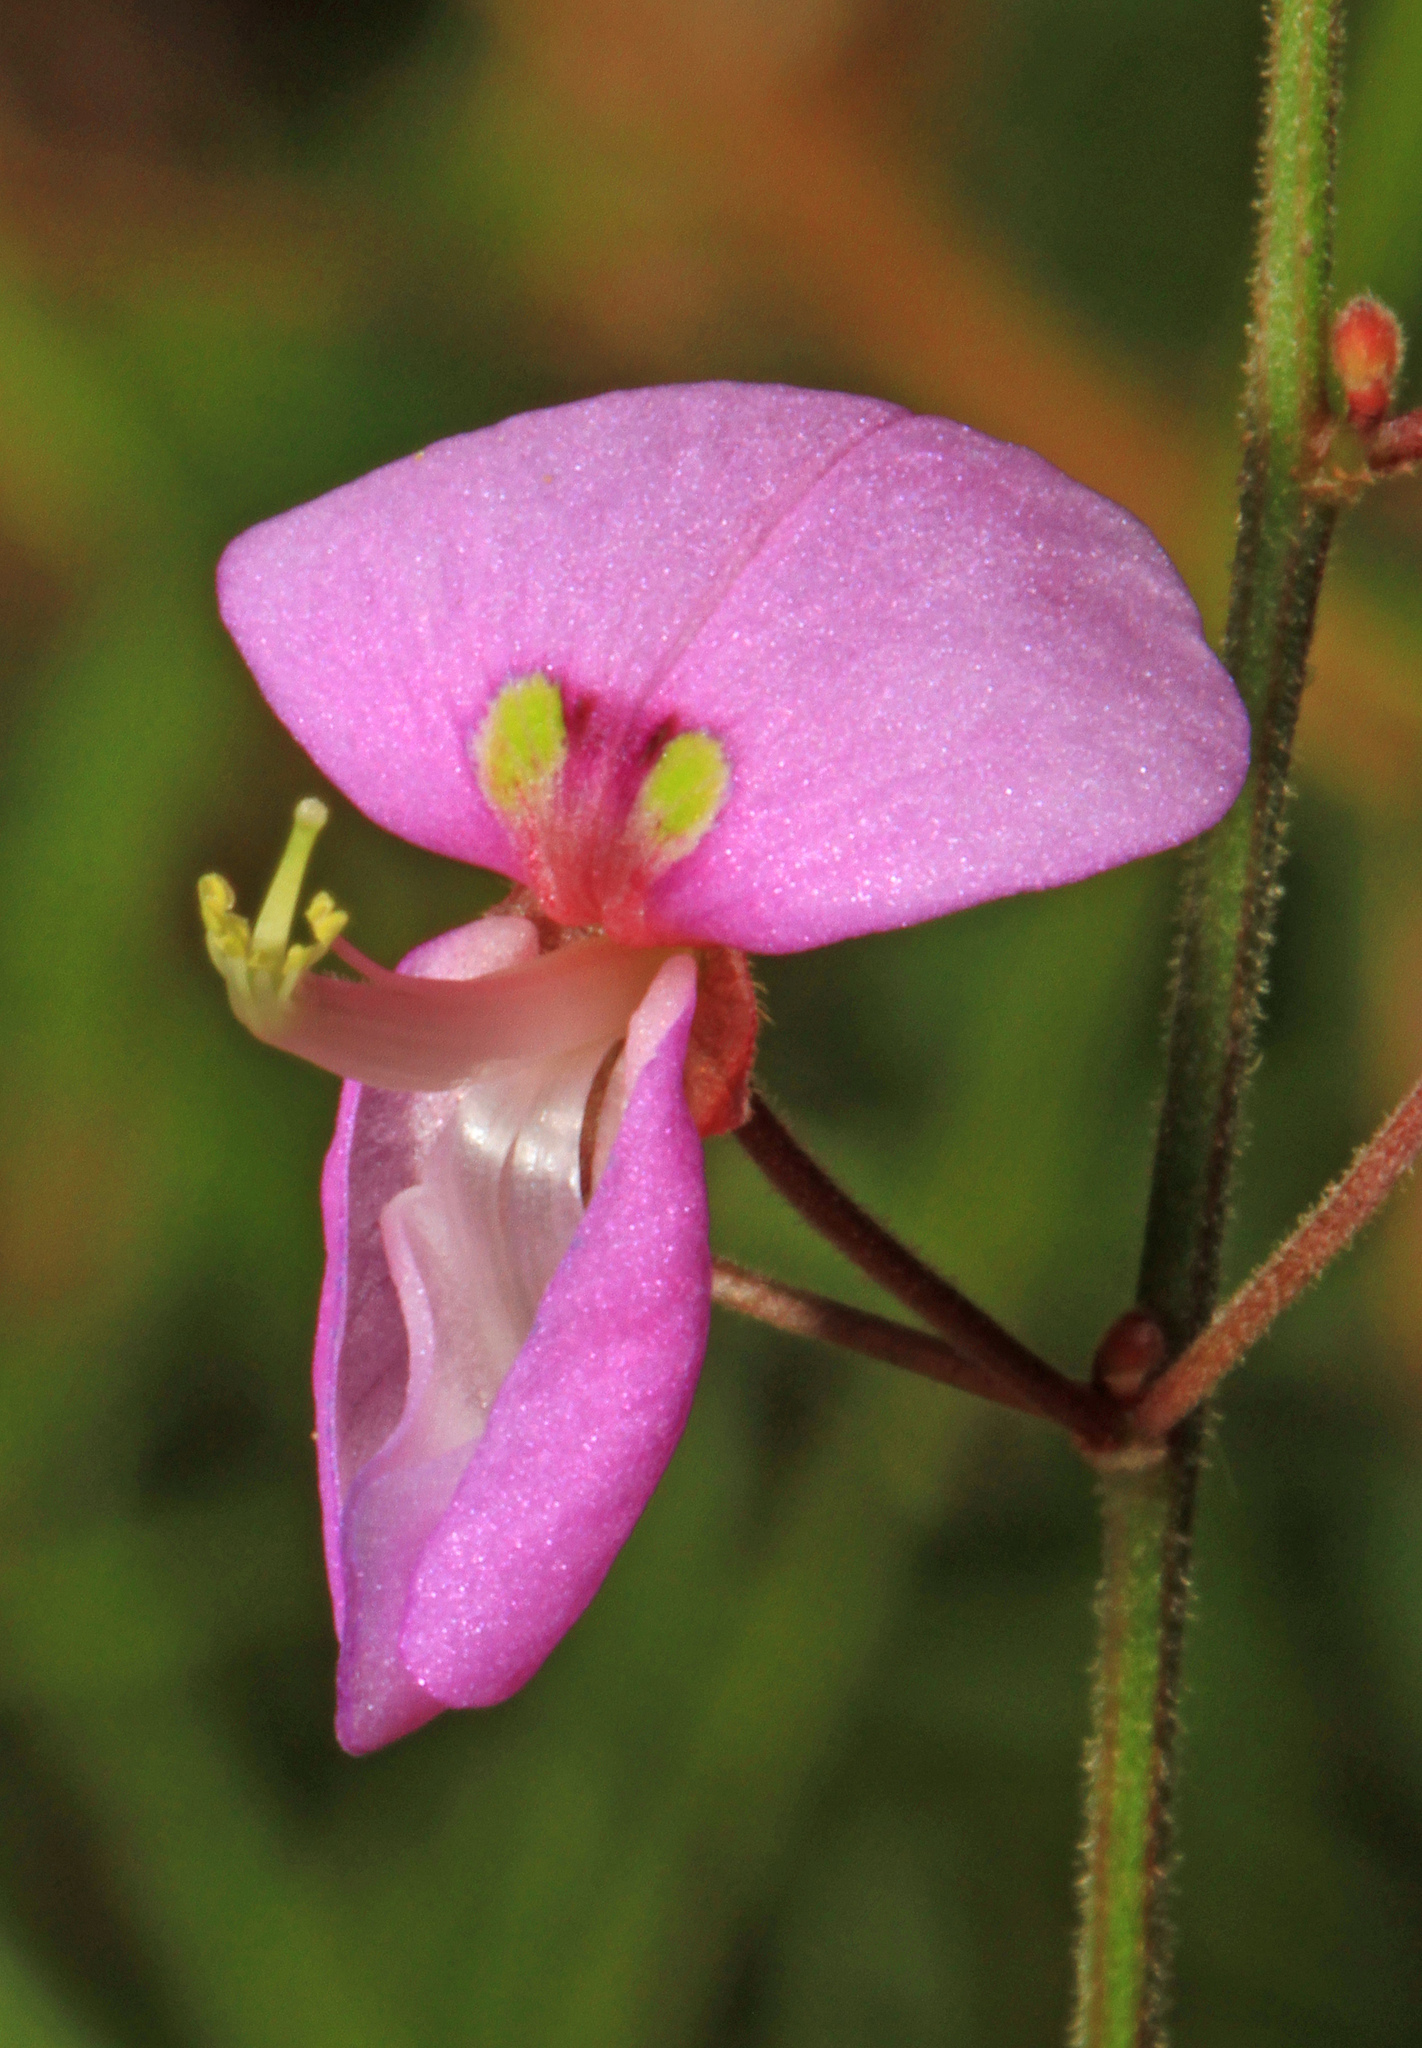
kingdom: Plantae
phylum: Tracheophyta
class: Magnoliopsida
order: Fabales
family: Fabaceae
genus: Desmodium
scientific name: Desmodium
